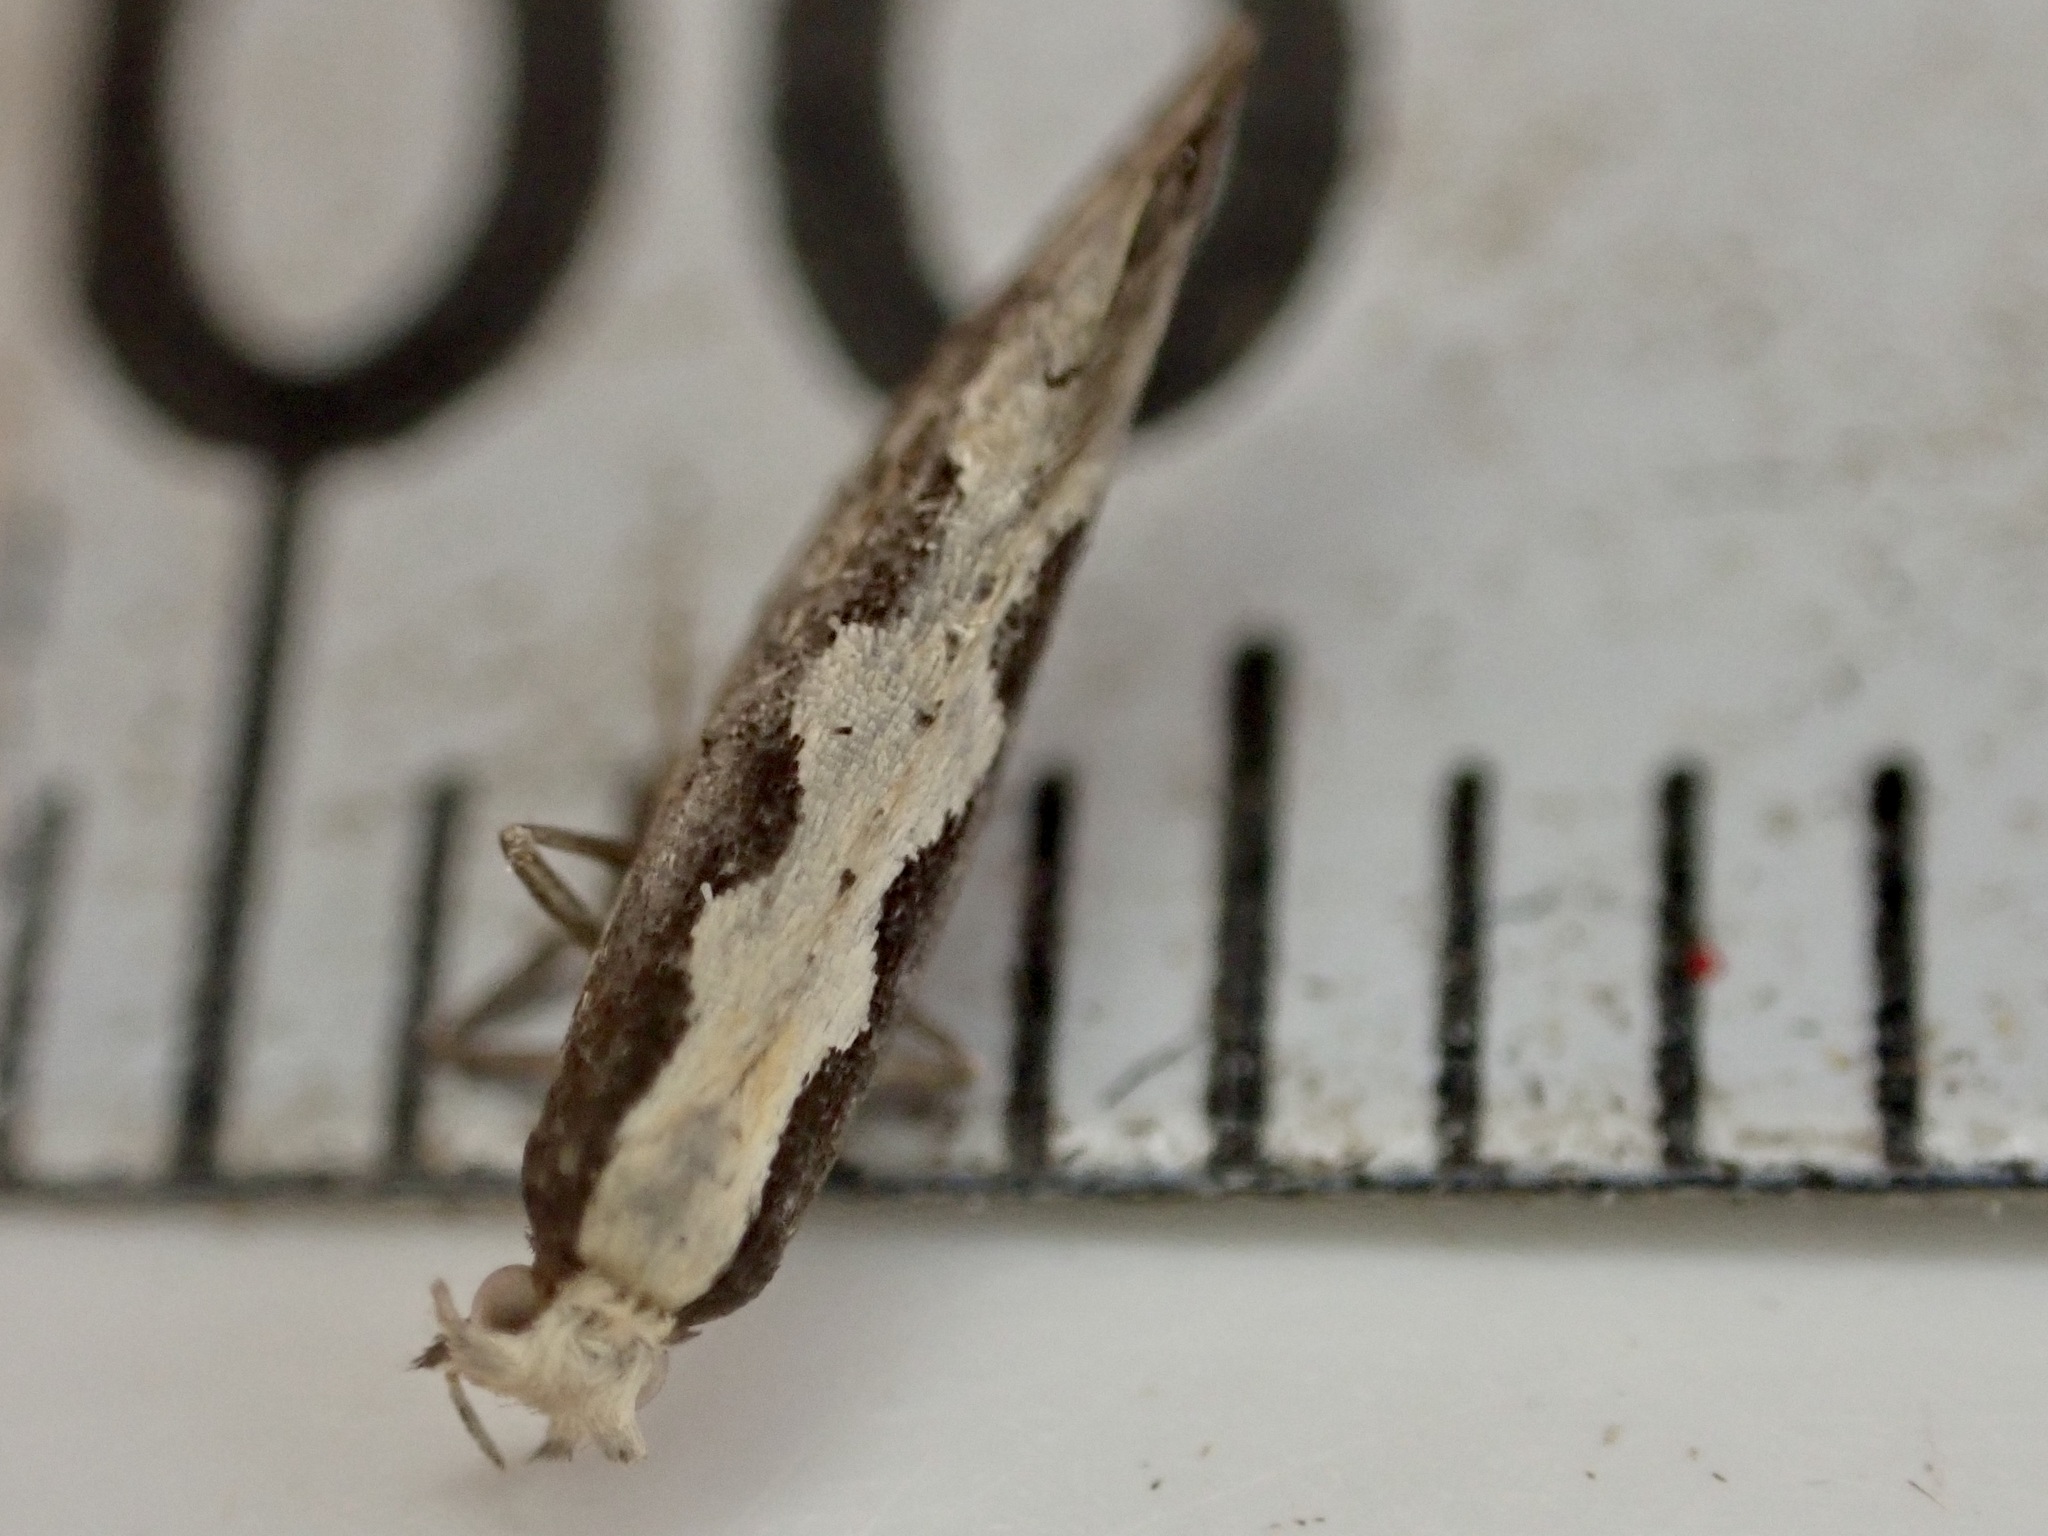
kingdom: Animalia
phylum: Arthropoda
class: Insecta
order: Lepidoptera
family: Plutellidae
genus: Plutella
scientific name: Plutella xylostella
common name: Diamond-back moth
